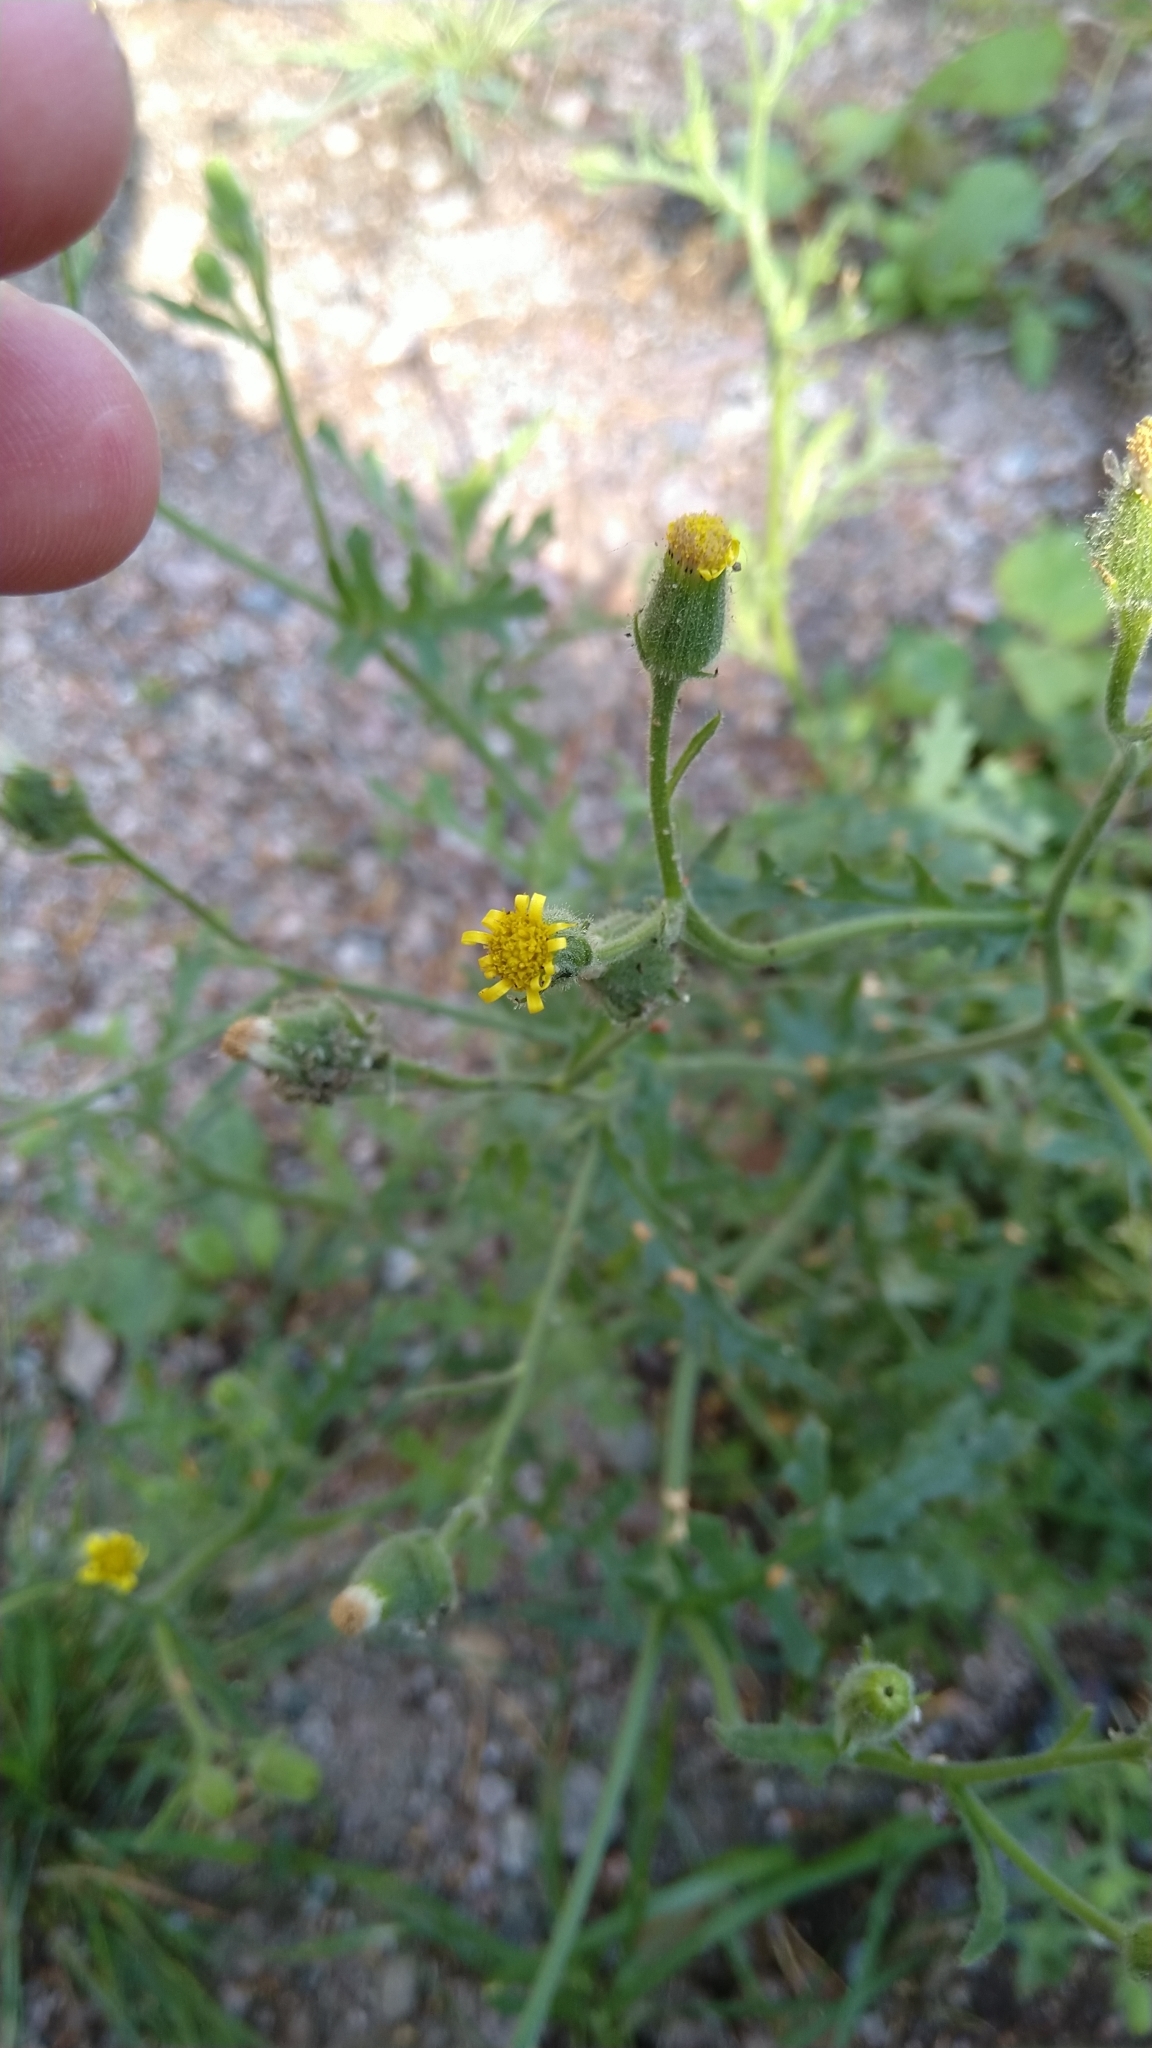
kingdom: Plantae
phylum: Tracheophyta
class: Magnoliopsida
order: Asterales
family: Asteraceae
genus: Senecio
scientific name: Senecio viscosus
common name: Sticky groundsel
